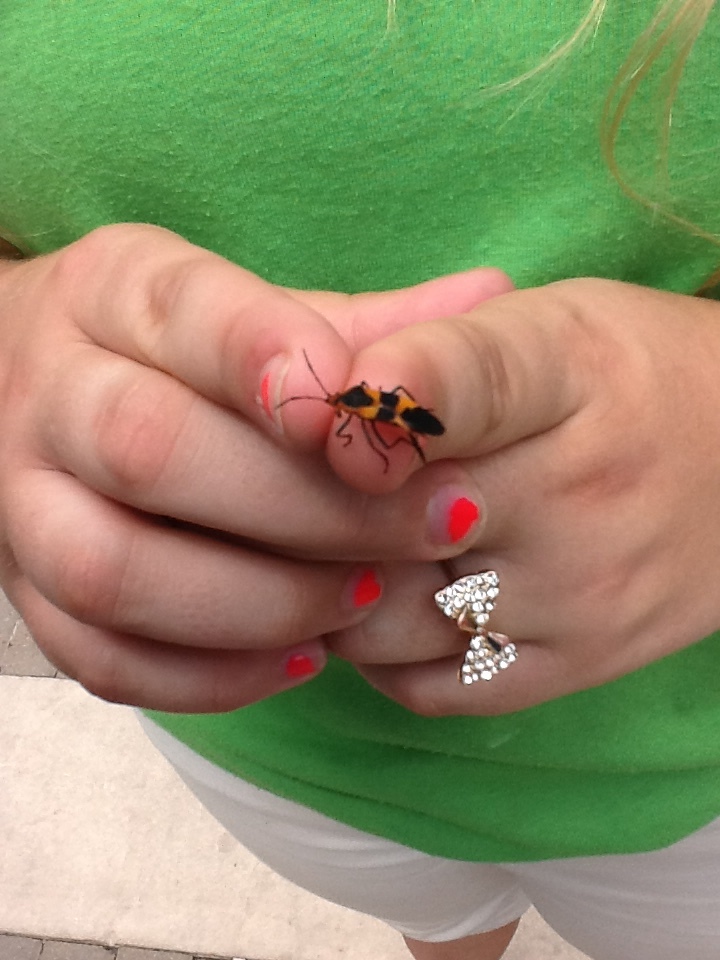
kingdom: Animalia
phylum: Arthropoda
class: Insecta
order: Hemiptera
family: Lygaeidae
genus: Oncopeltus
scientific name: Oncopeltus fasciatus
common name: Large milkweed bug
